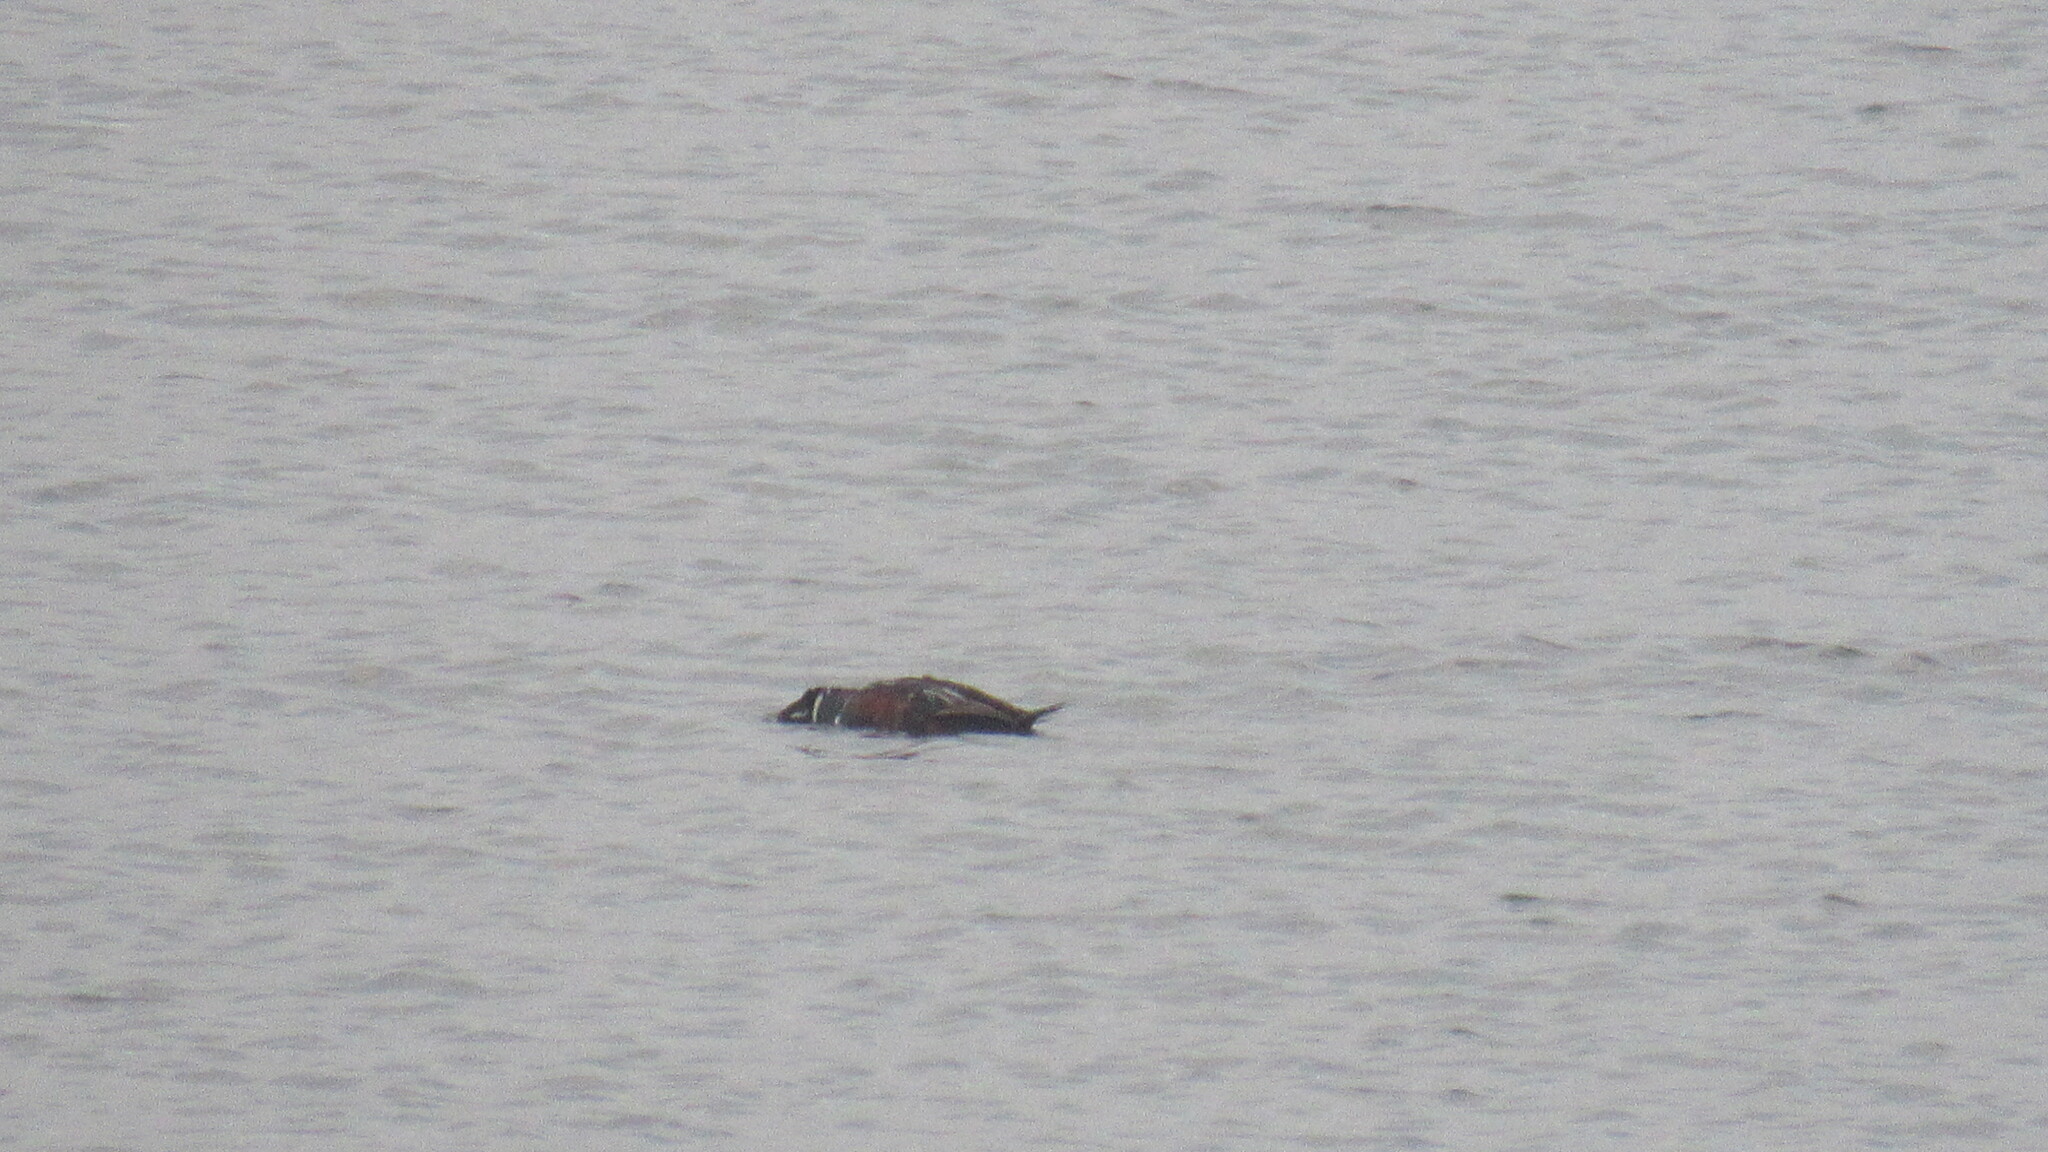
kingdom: Animalia
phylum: Chordata
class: Aves
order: Anseriformes
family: Anatidae
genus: Histrionicus
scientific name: Histrionicus histrionicus
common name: Harlequin duck
